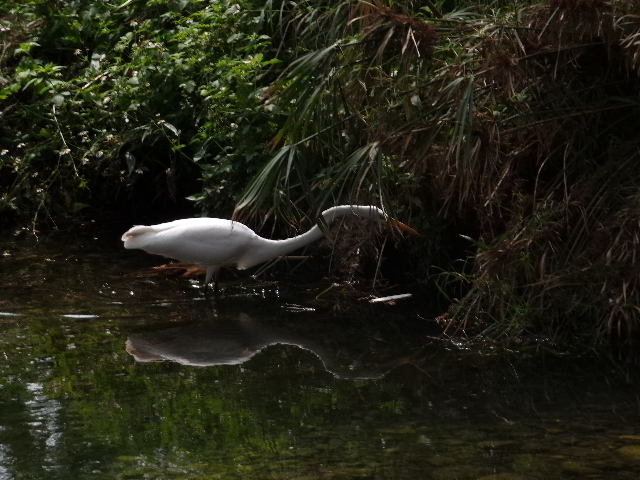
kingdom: Animalia
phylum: Chordata
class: Aves
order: Pelecaniformes
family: Ardeidae
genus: Ardea
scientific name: Ardea alba
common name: Great egret
